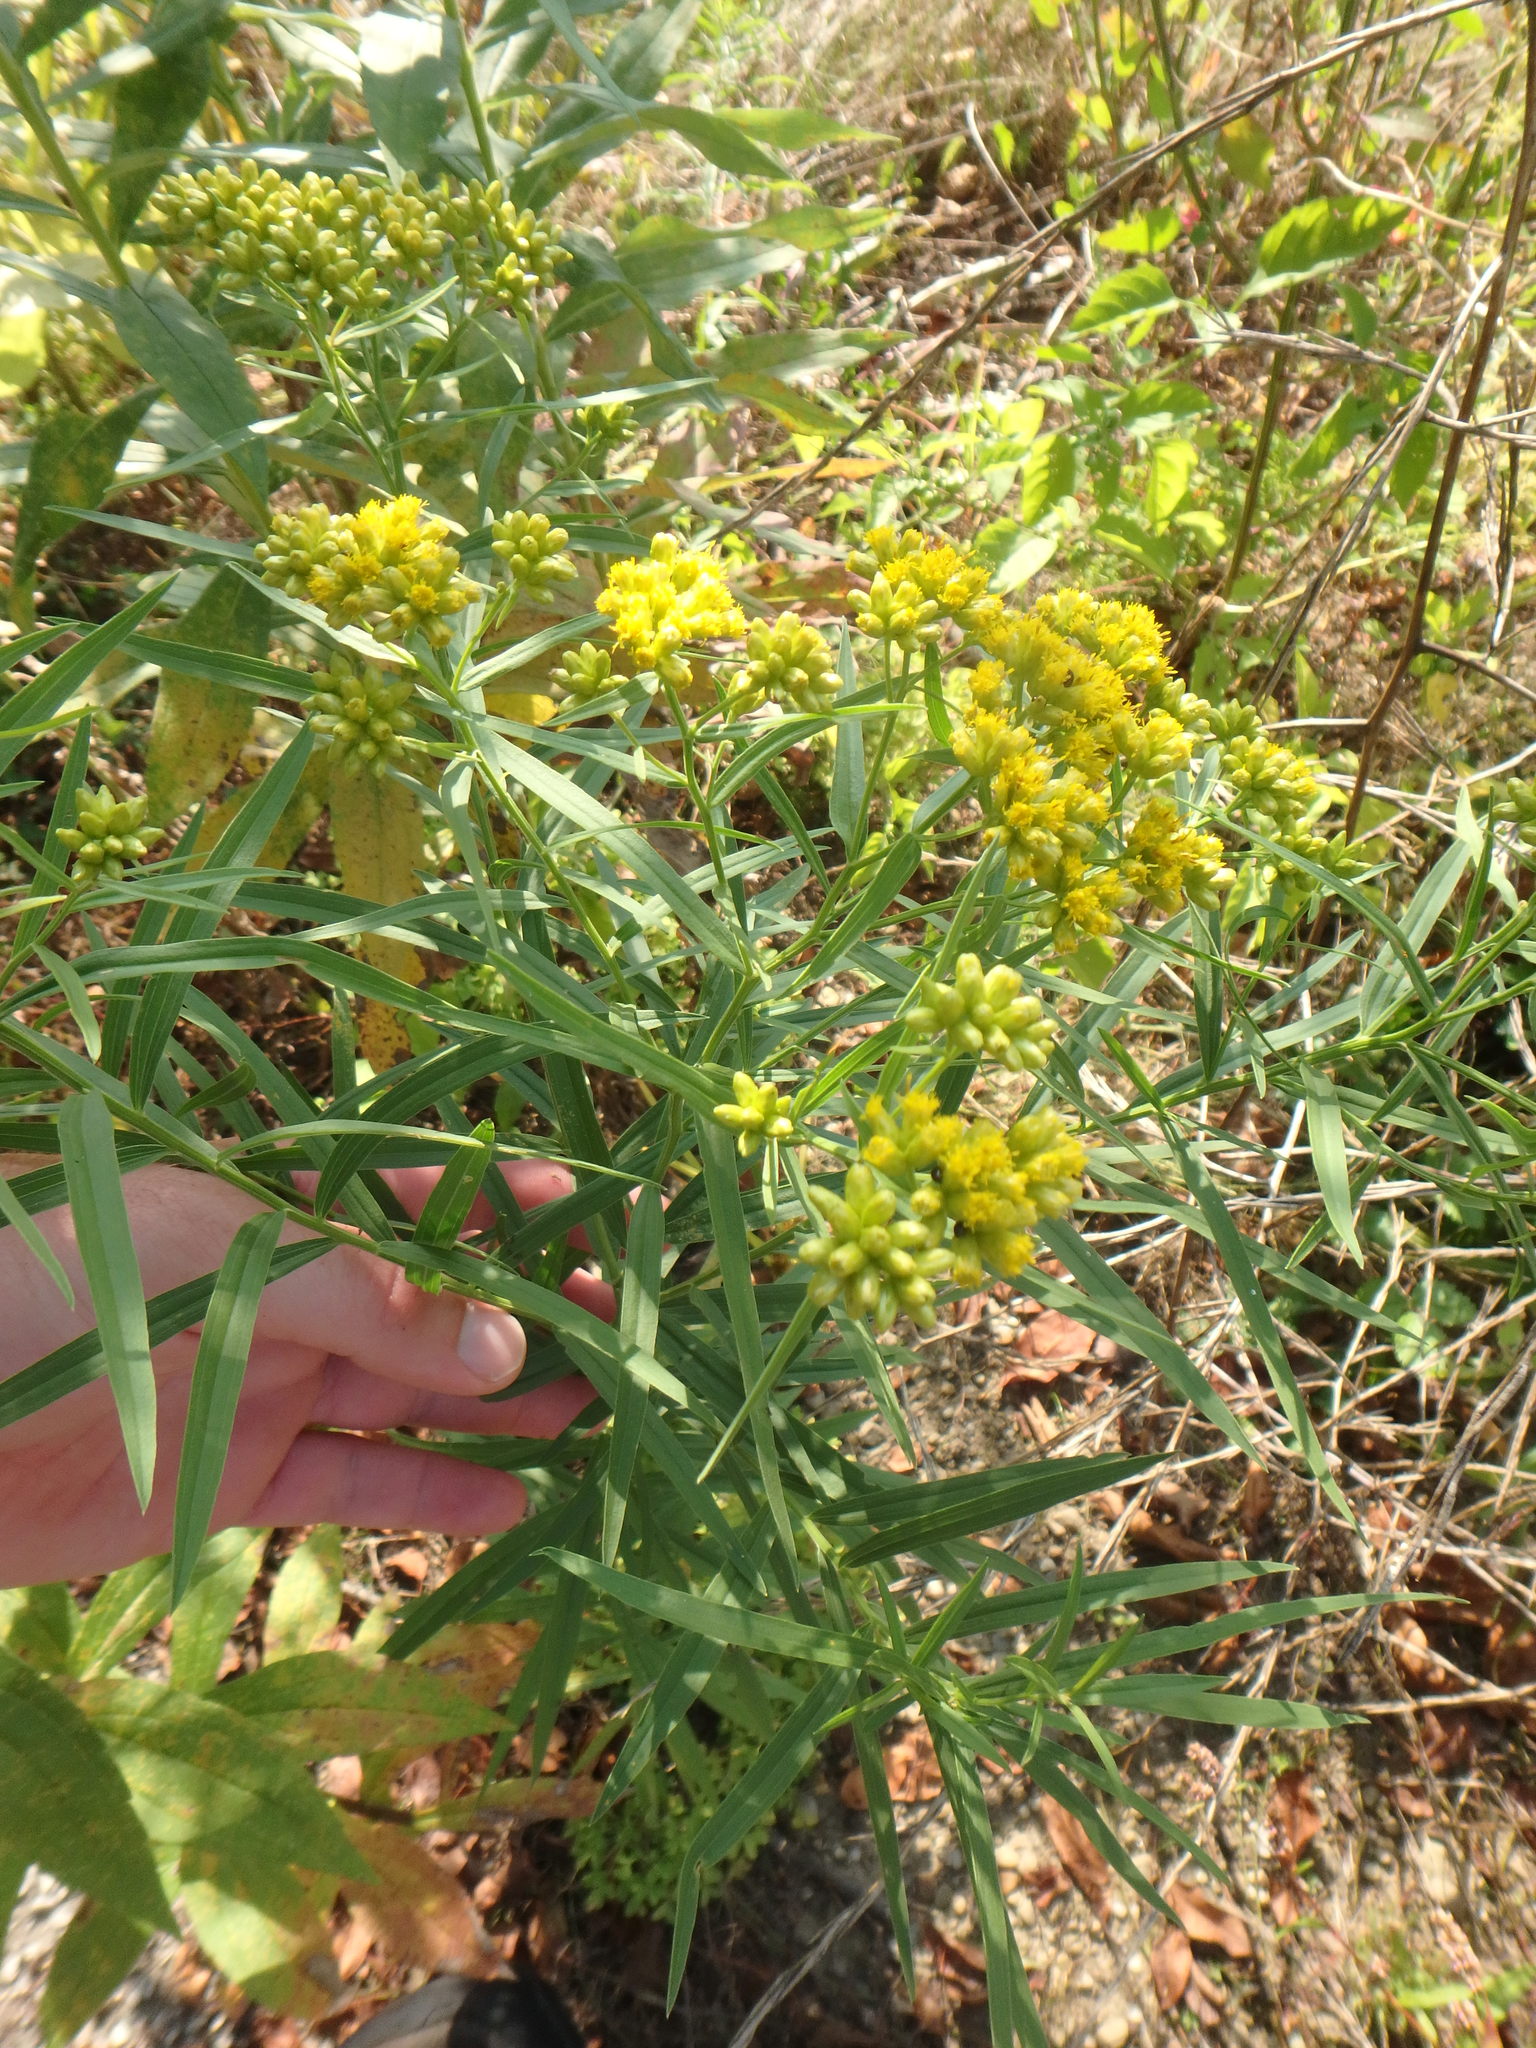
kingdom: Plantae
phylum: Tracheophyta
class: Magnoliopsida
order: Asterales
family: Asteraceae
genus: Euthamia
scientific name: Euthamia graminifolia
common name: Common goldentop
